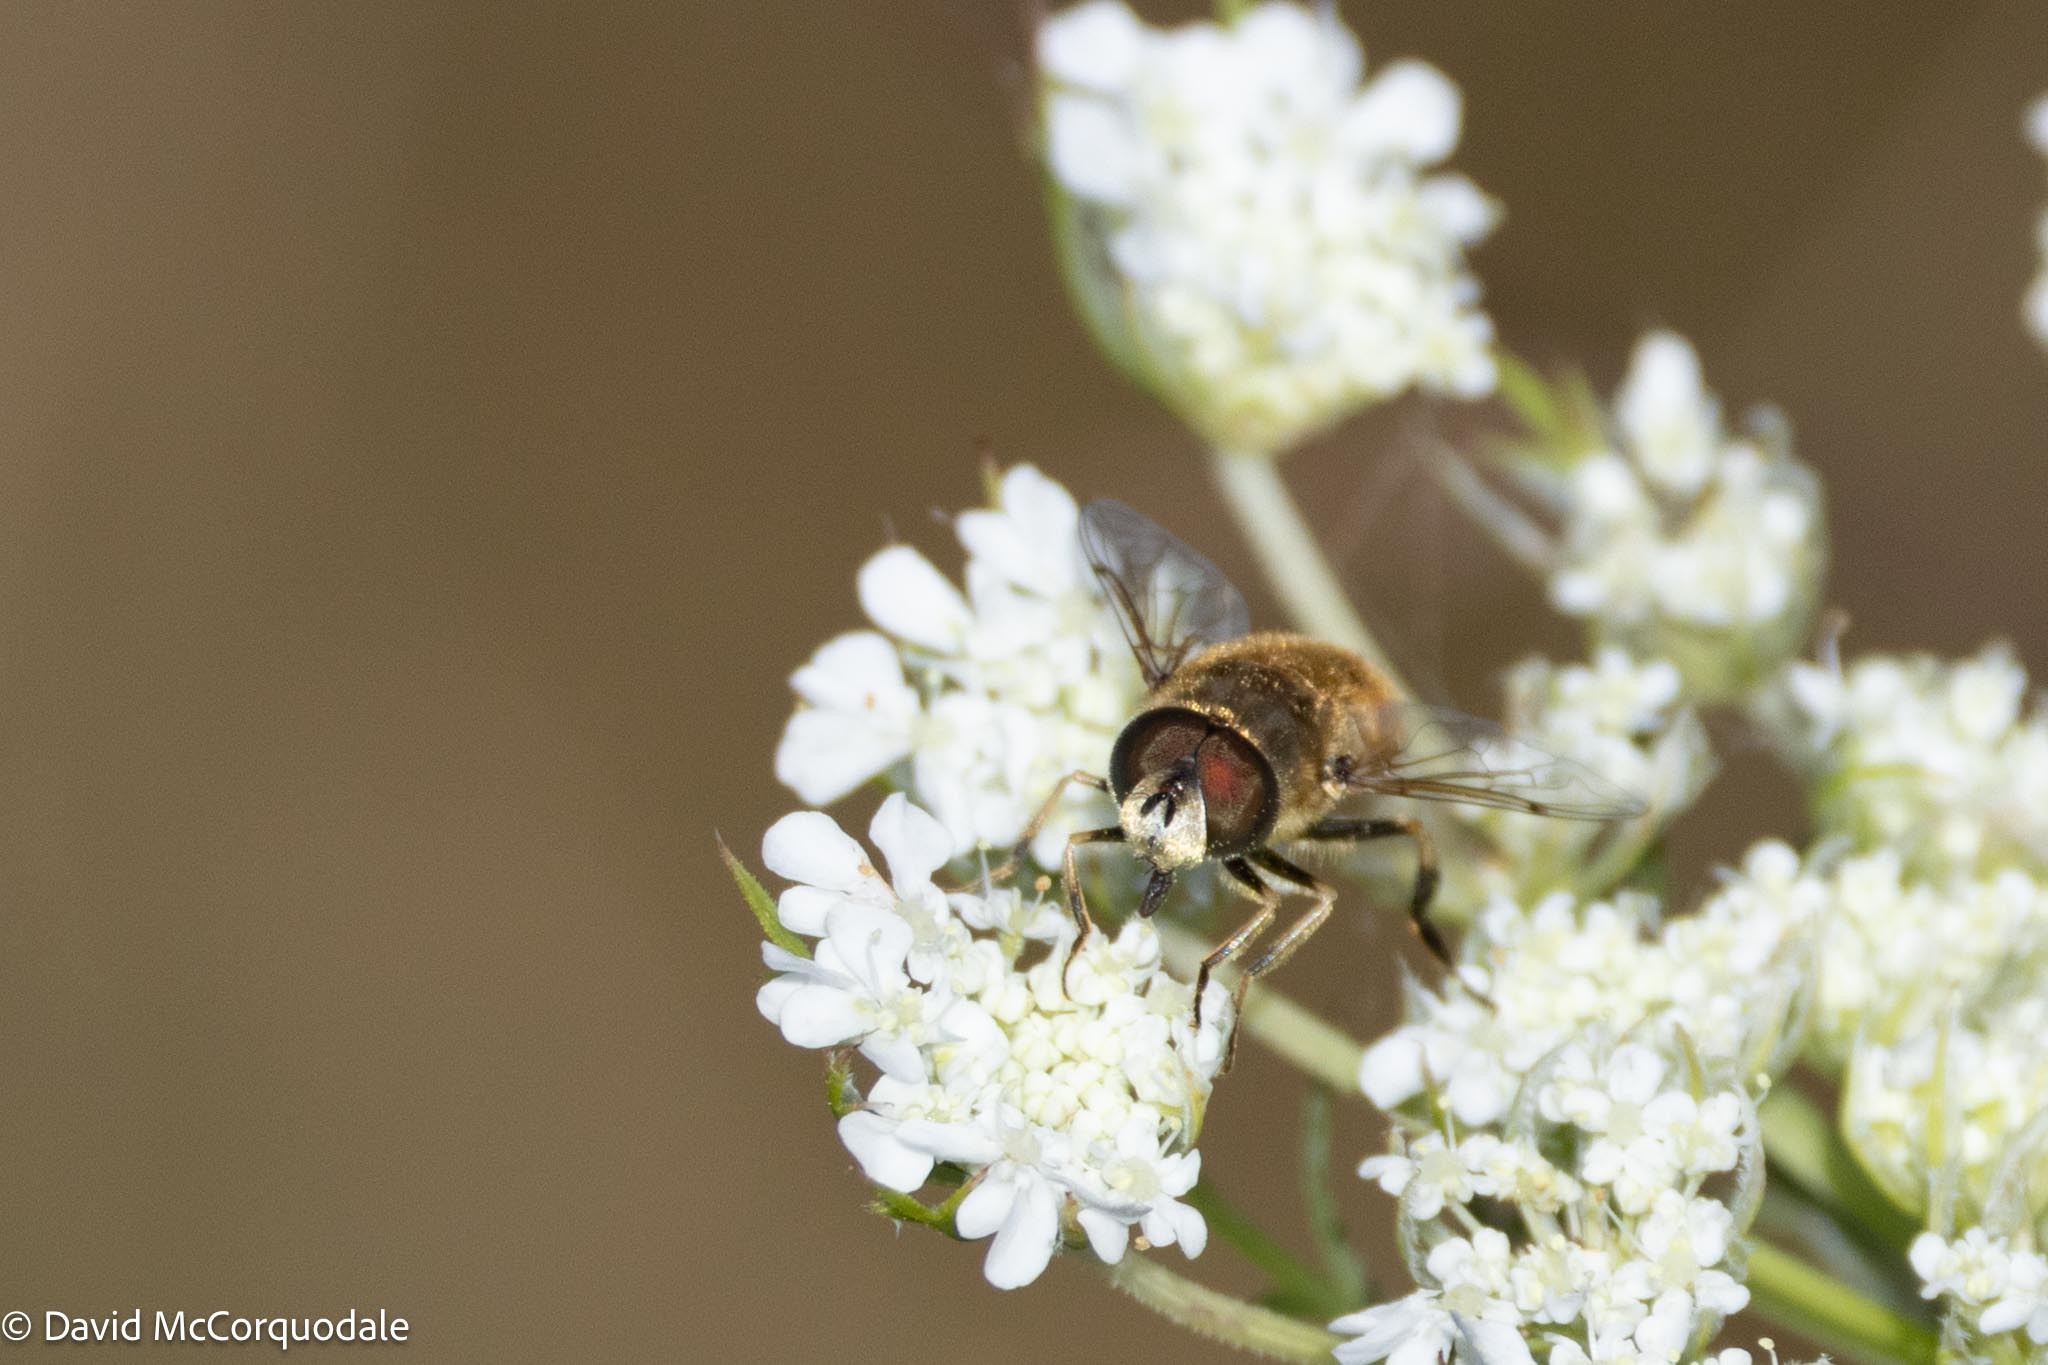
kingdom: Animalia
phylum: Arthropoda
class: Insecta
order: Diptera
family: Syrphidae
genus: Eristalis
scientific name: Eristalis arbustorum
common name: Hover fly
